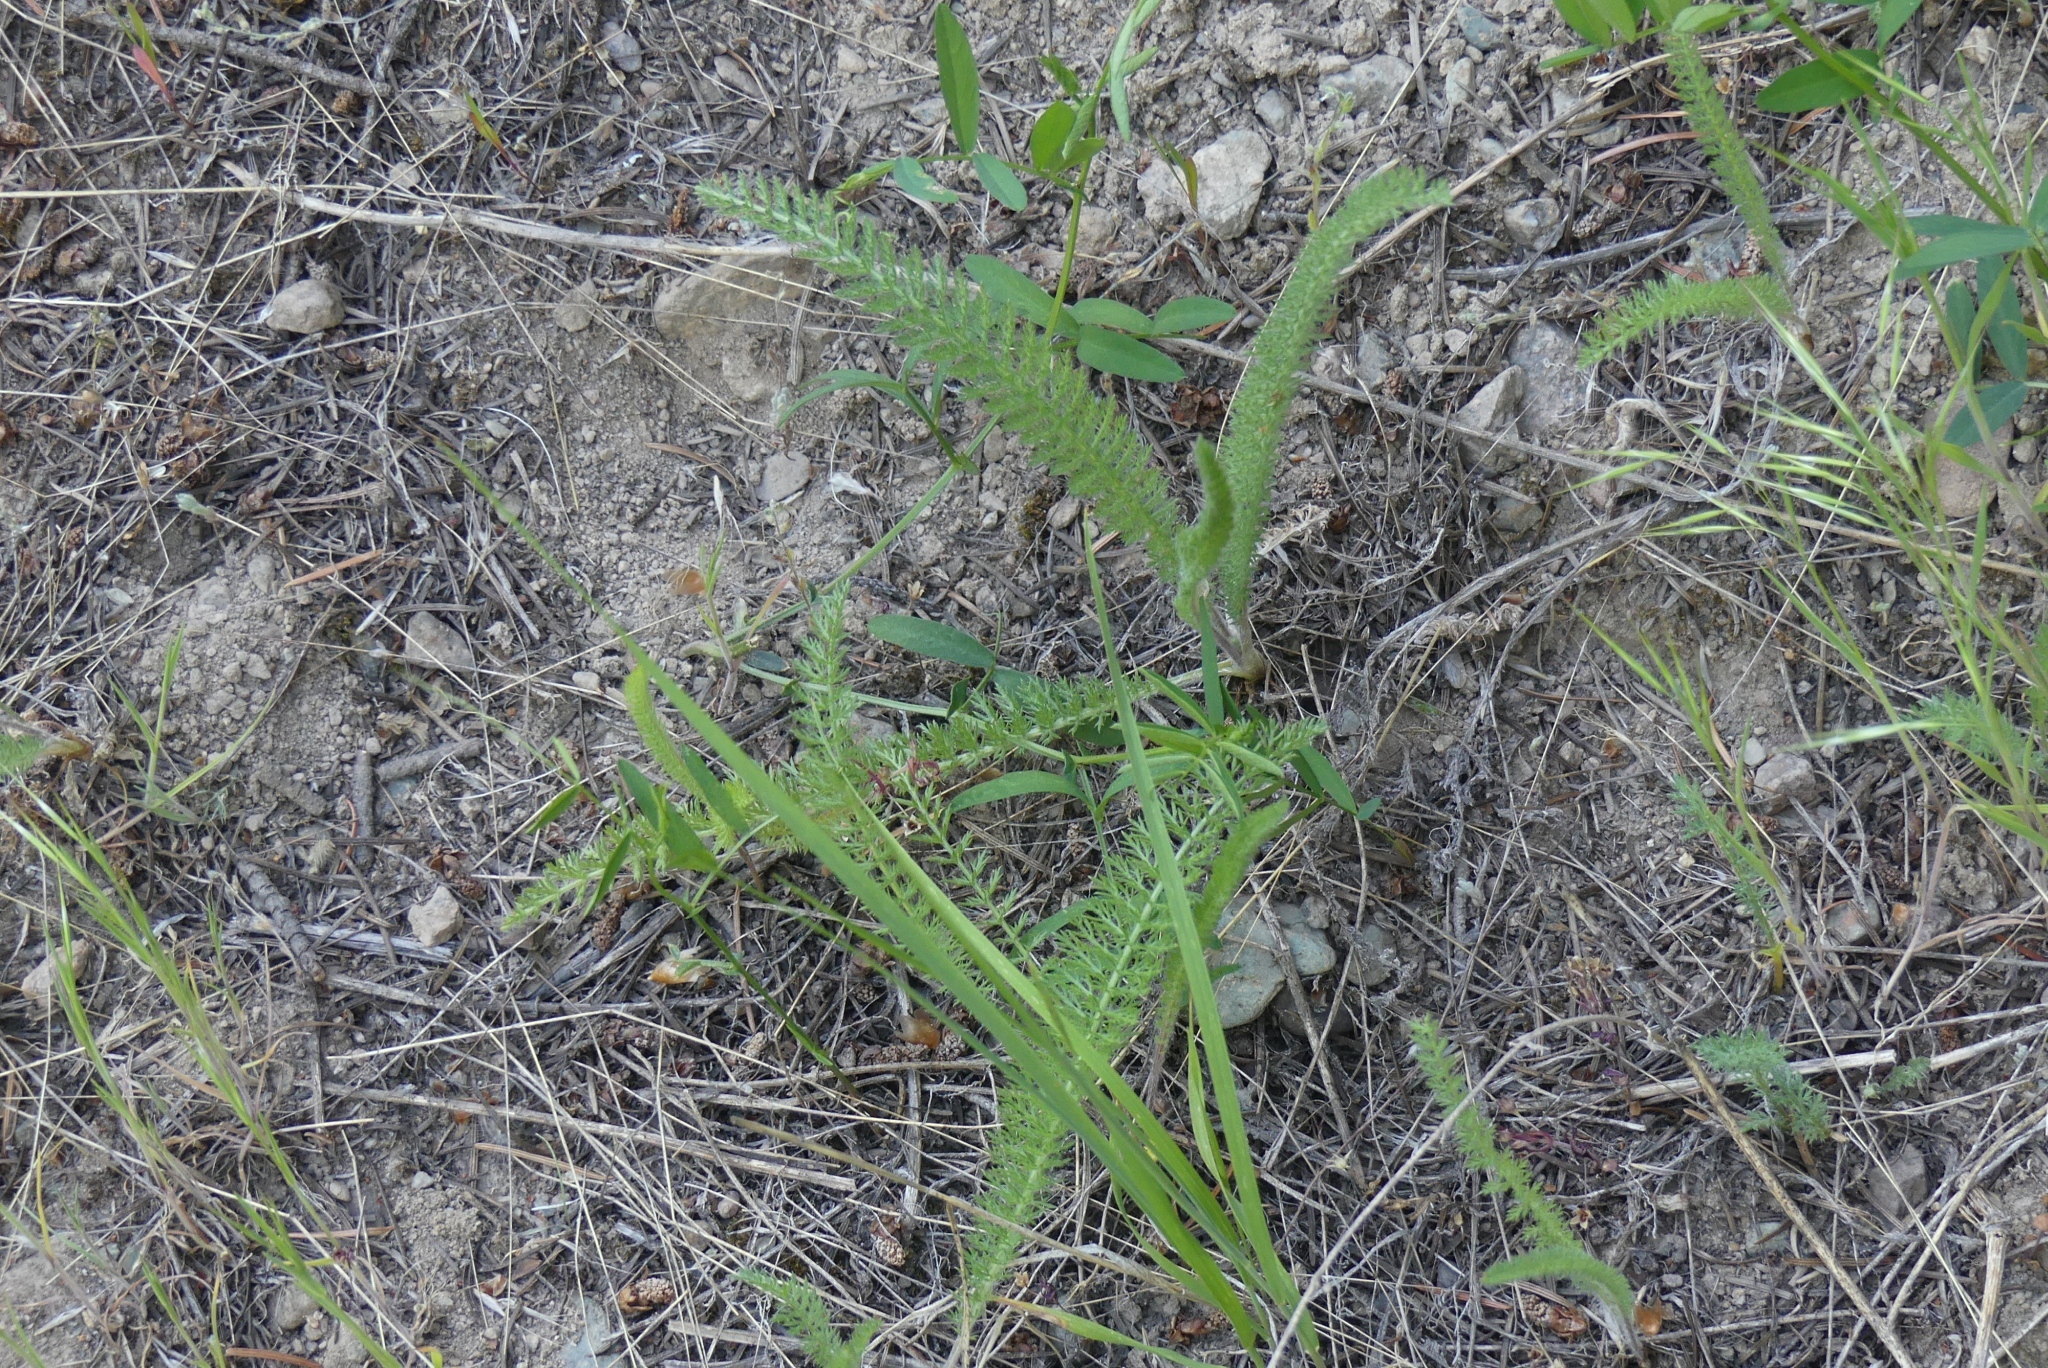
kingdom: Plantae
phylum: Tracheophyta
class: Magnoliopsida
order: Asterales
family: Asteraceae
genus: Achillea
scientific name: Achillea millefolium
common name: Yarrow
